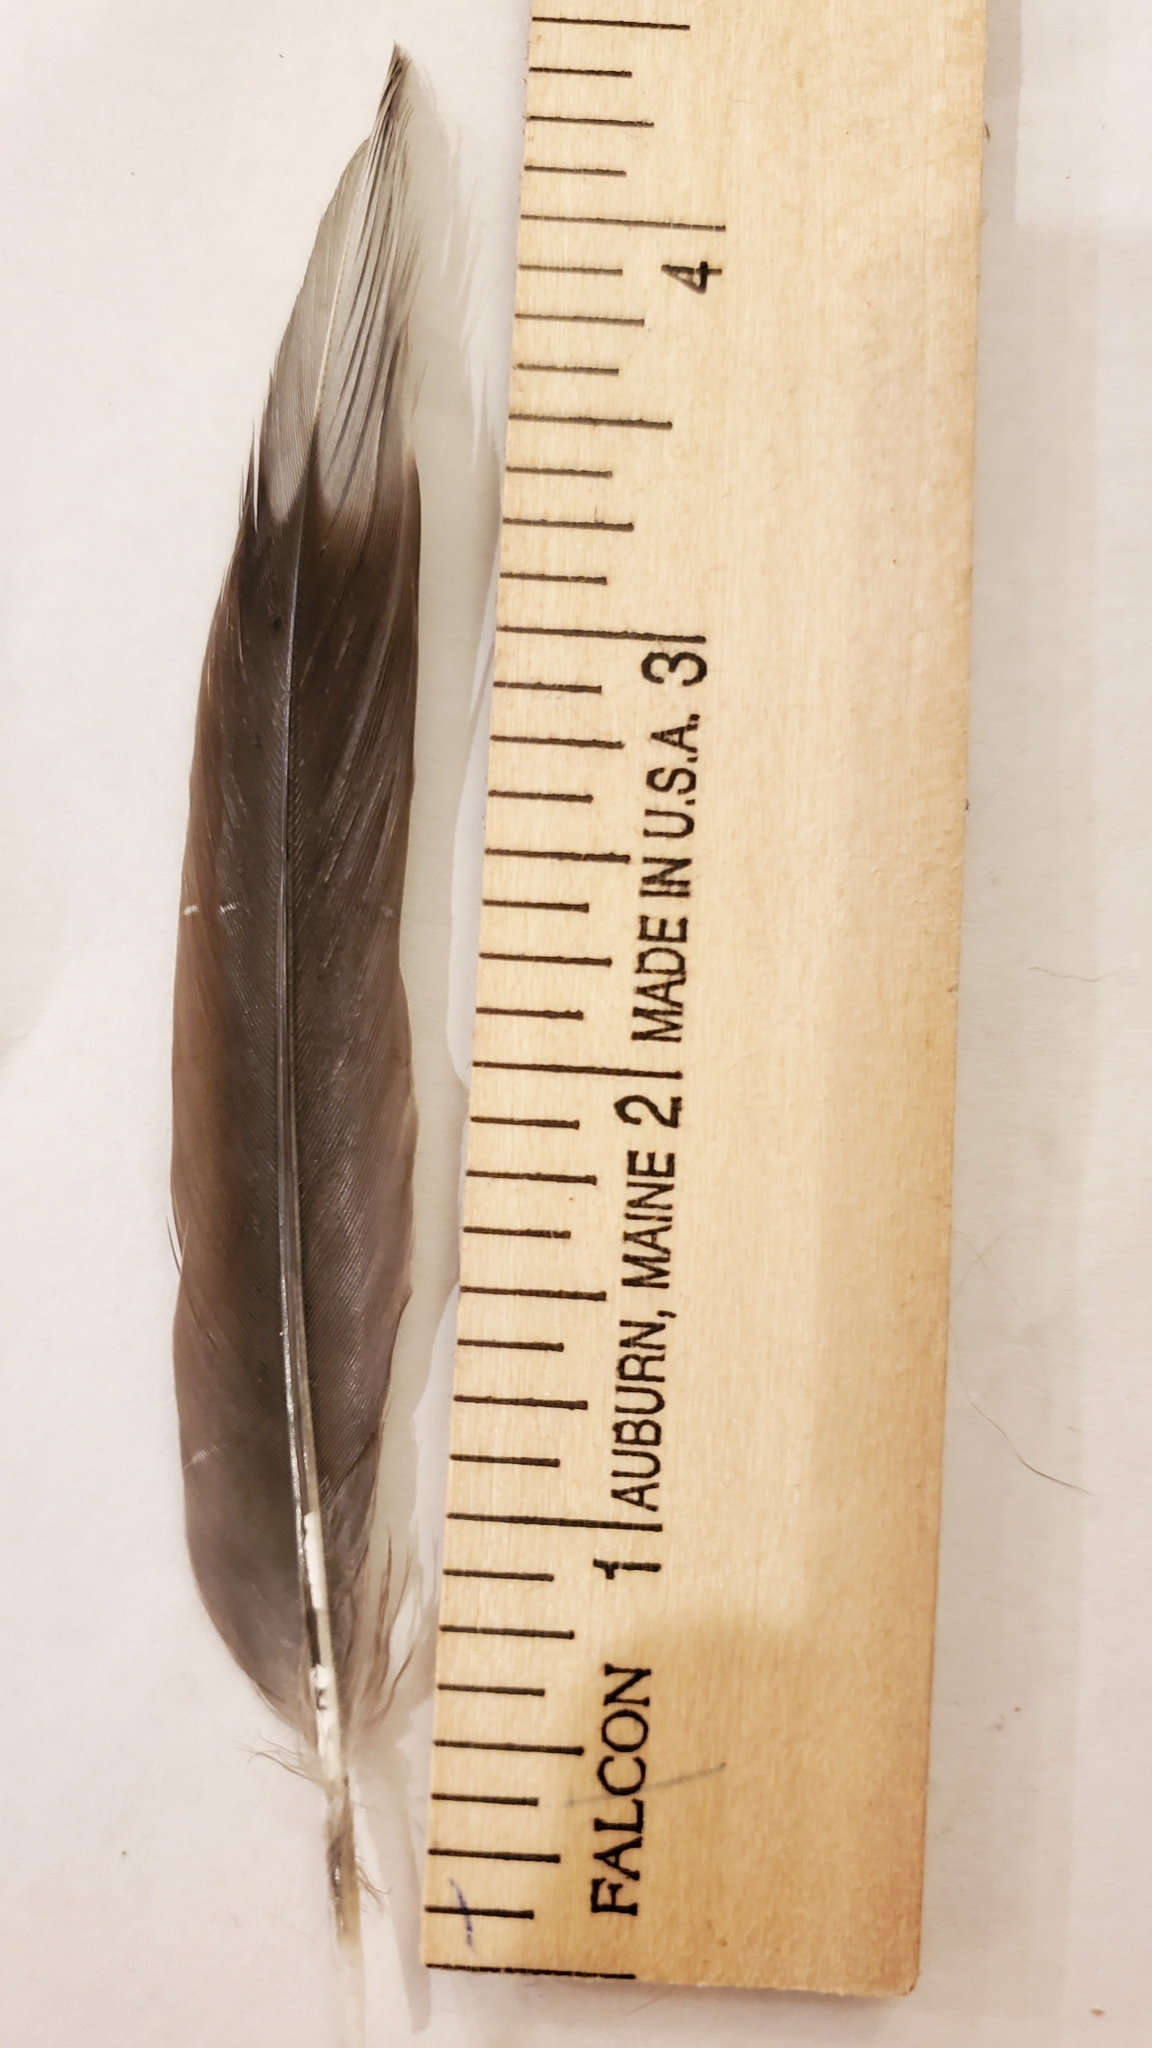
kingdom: Animalia
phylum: Chordata
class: Aves
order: Columbiformes
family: Columbidae
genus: Zenaida
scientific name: Zenaida macroura
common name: Mourning dove
